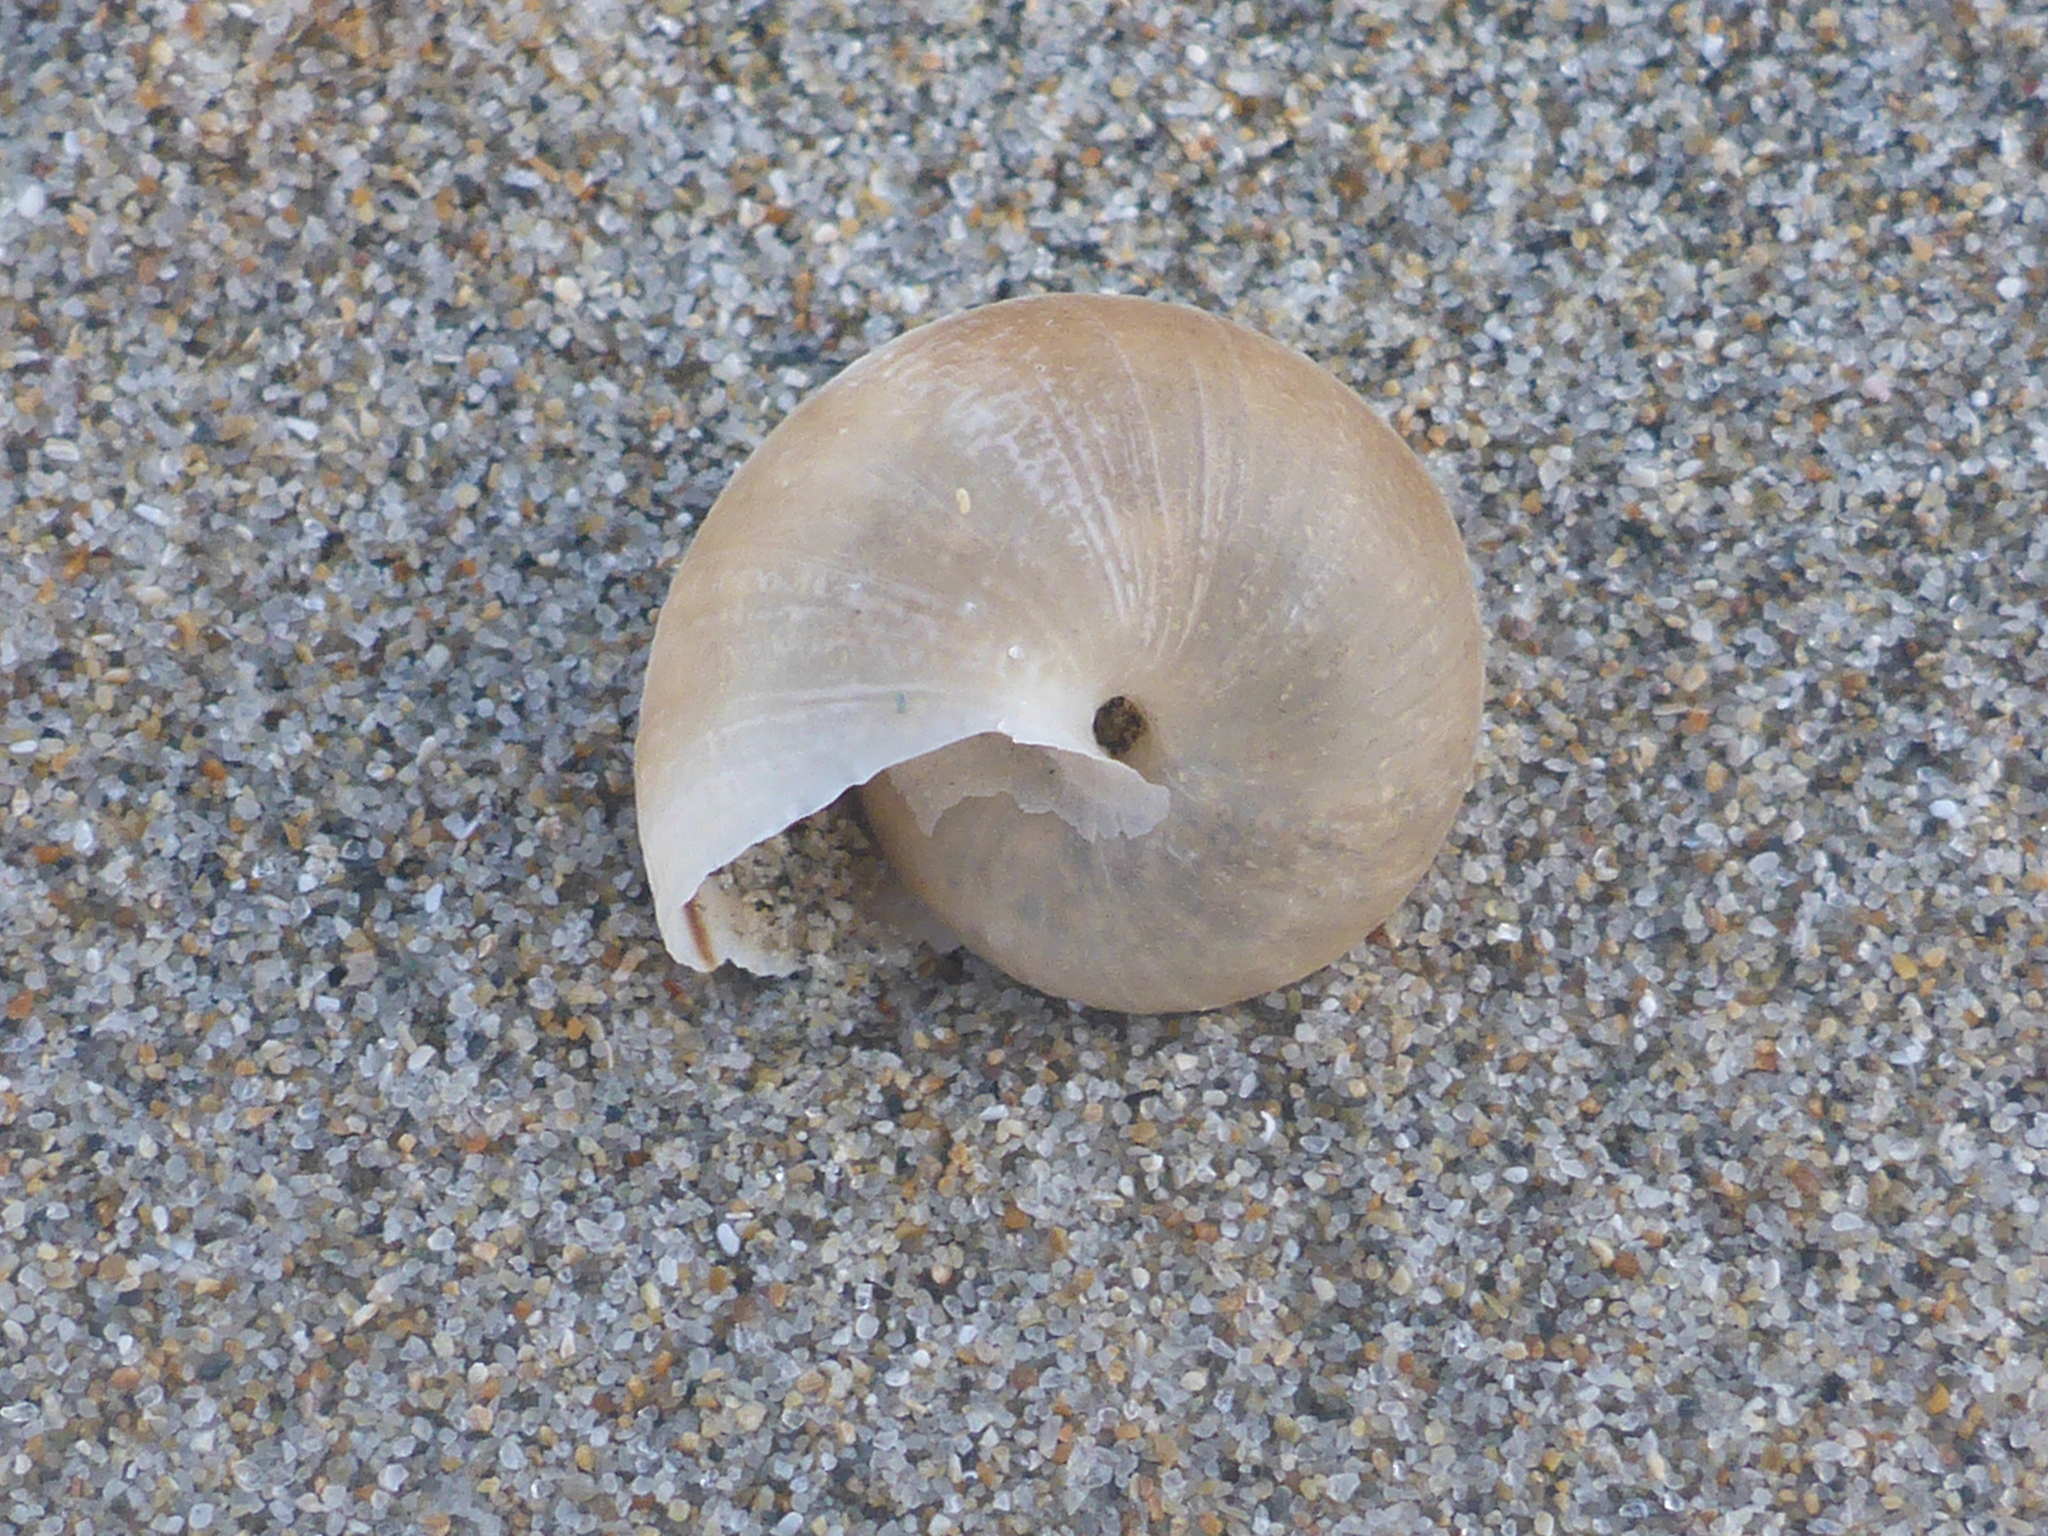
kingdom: Animalia
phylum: Mollusca
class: Gastropoda
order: Stylommatophora
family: Xanthonychidae
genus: Helminthoglypta
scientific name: Helminthoglypta nickliniana
